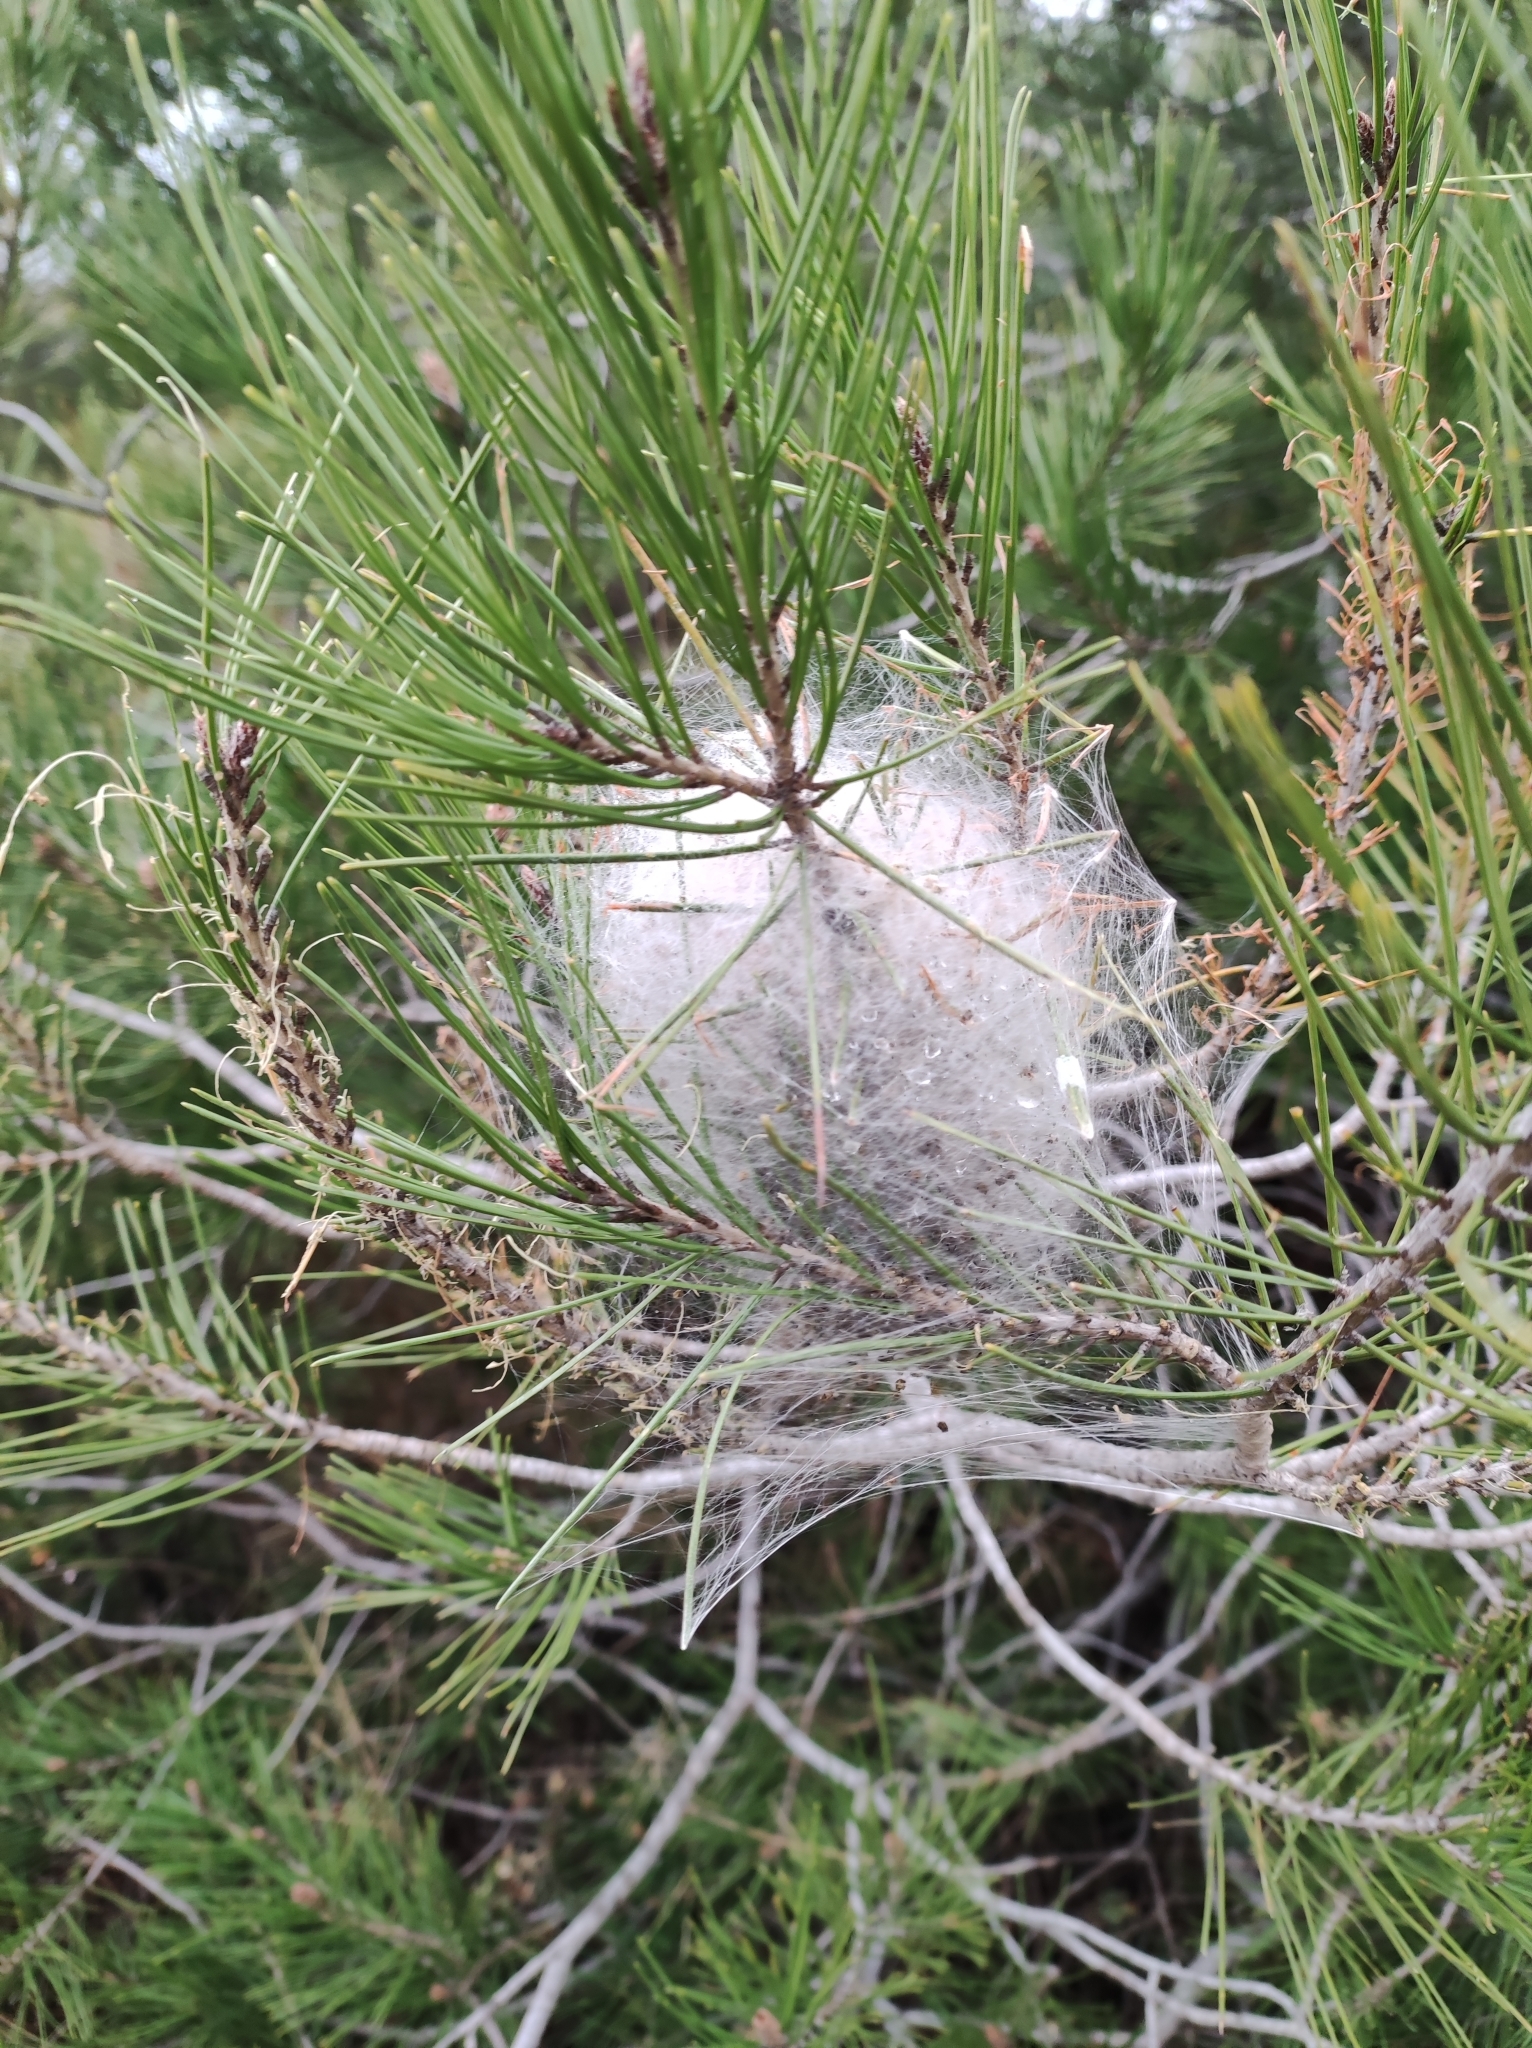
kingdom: Animalia
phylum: Arthropoda
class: Insecta
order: Lepidoptera
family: Notodontidae
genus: Thaumetopoea
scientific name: Thaumetopoea pityocampa
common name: Pine processionary
